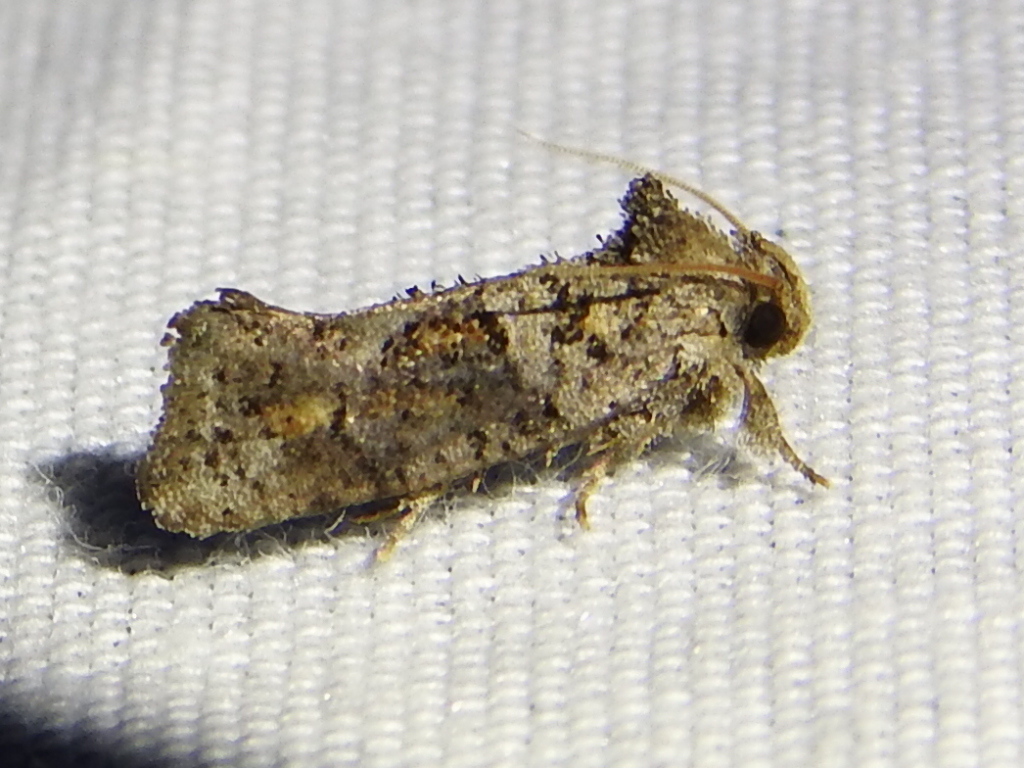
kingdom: Animalia
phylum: Arthropoda
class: Insecta
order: Lepidoptera
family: Tineidae
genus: Acrolophus
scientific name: Acrolophus piger
